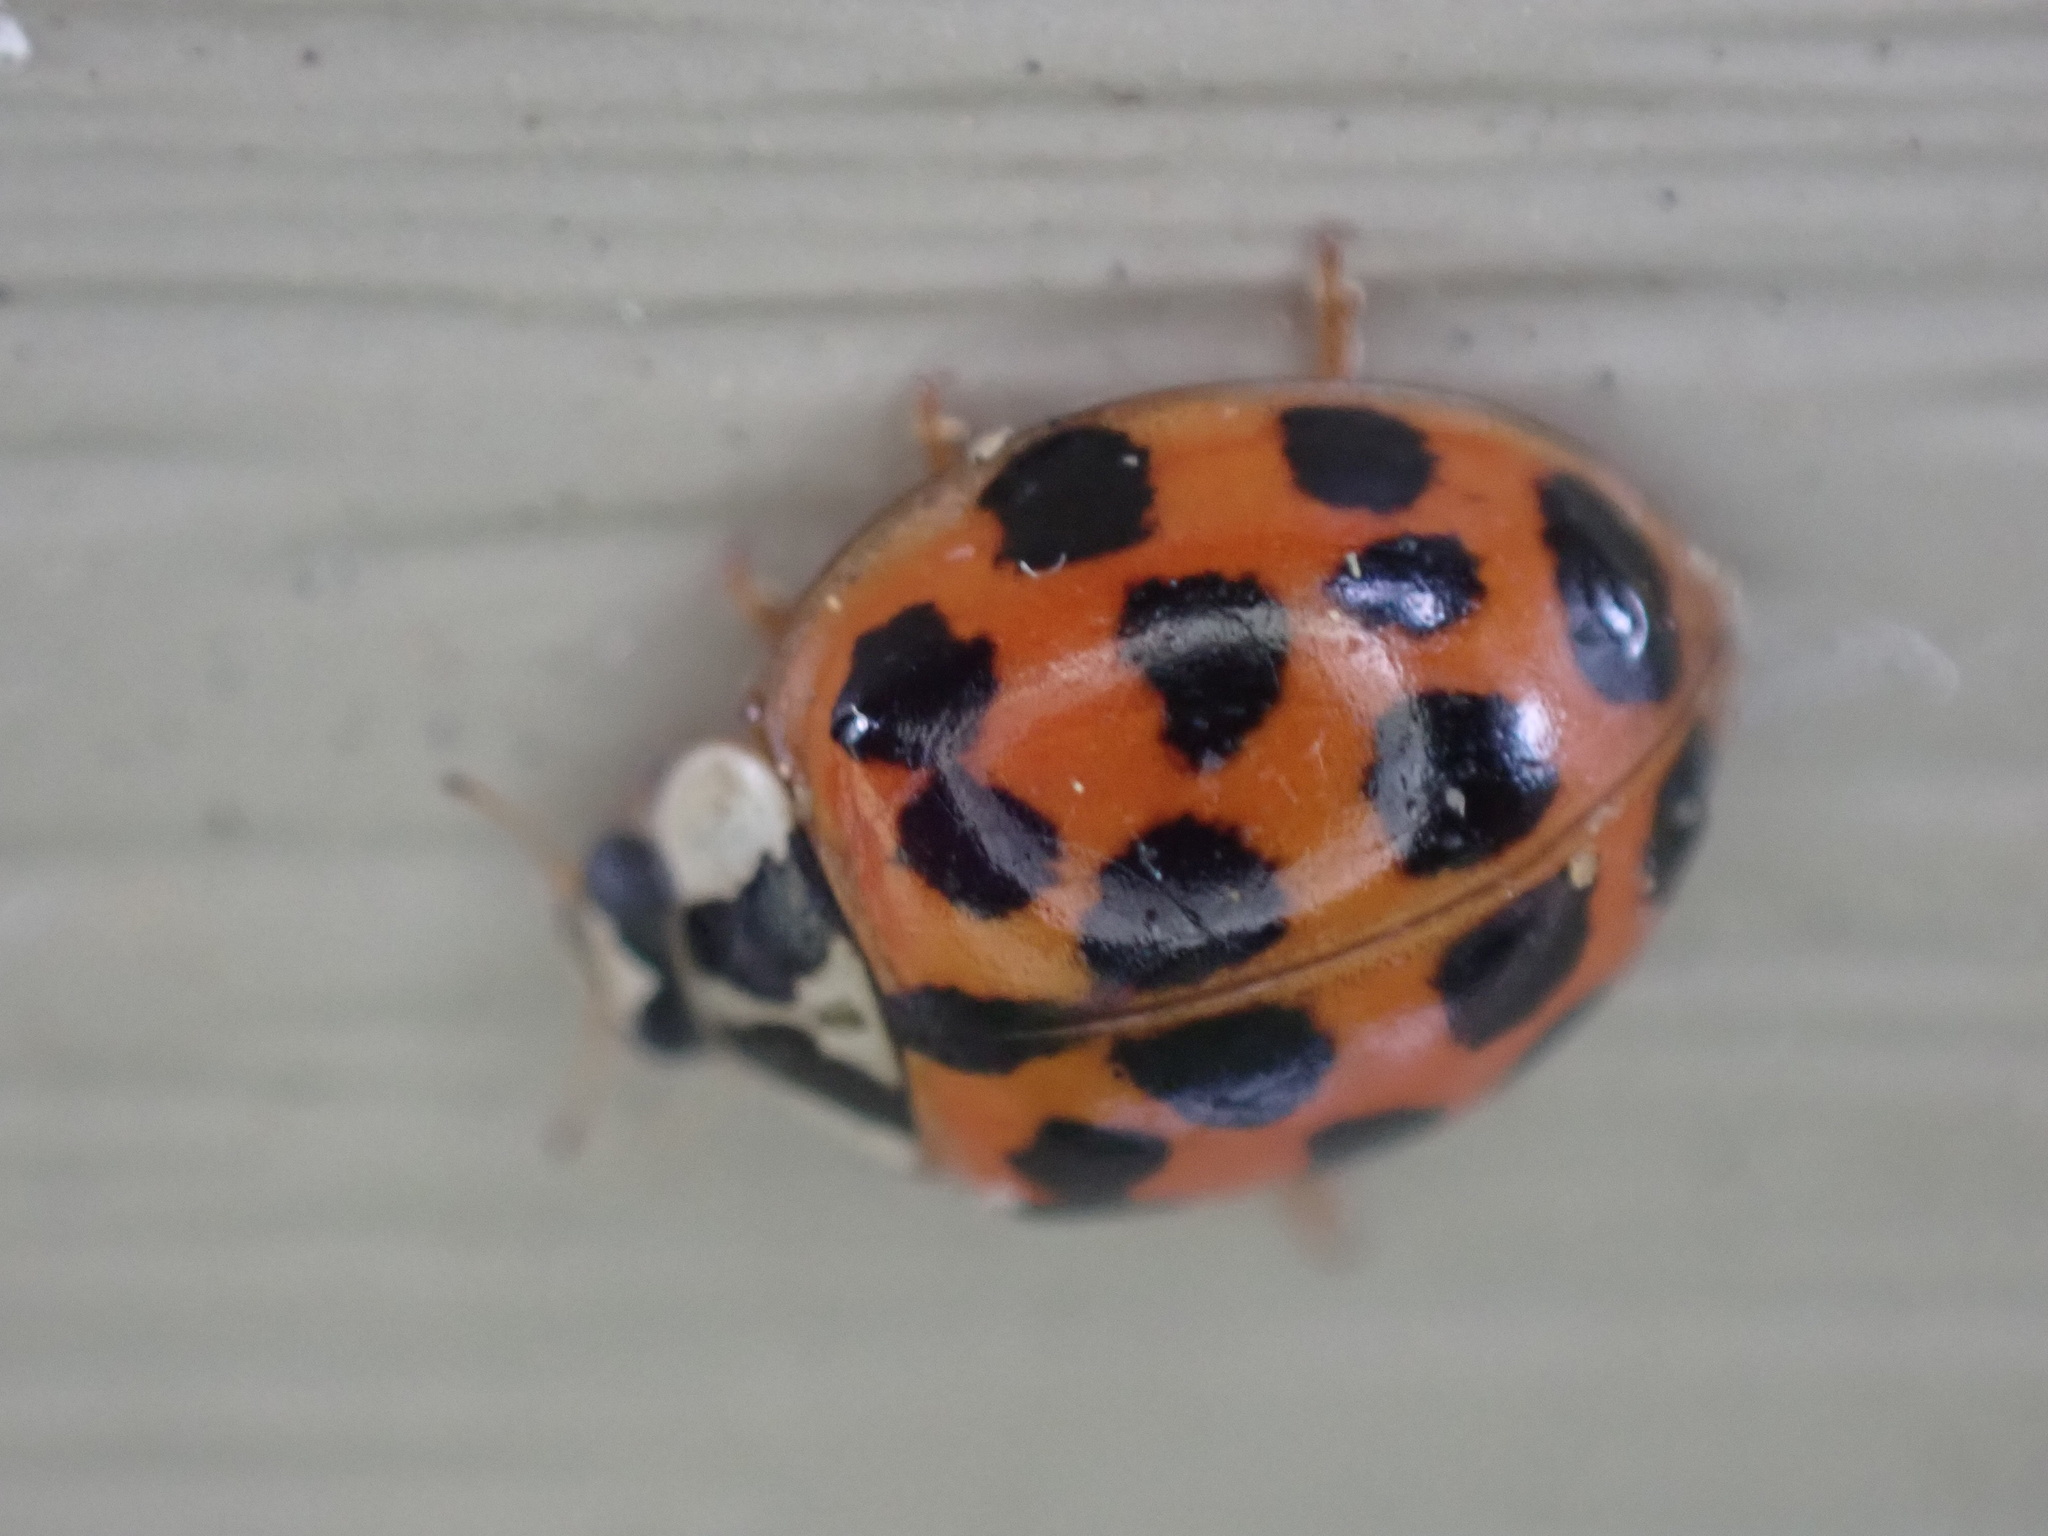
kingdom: Animalia
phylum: Arthropoda
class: Insecta
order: Coleoptera
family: Coccinellidae
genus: Harmonia
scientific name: Harmonia axyridis
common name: Harlequin ladybird
